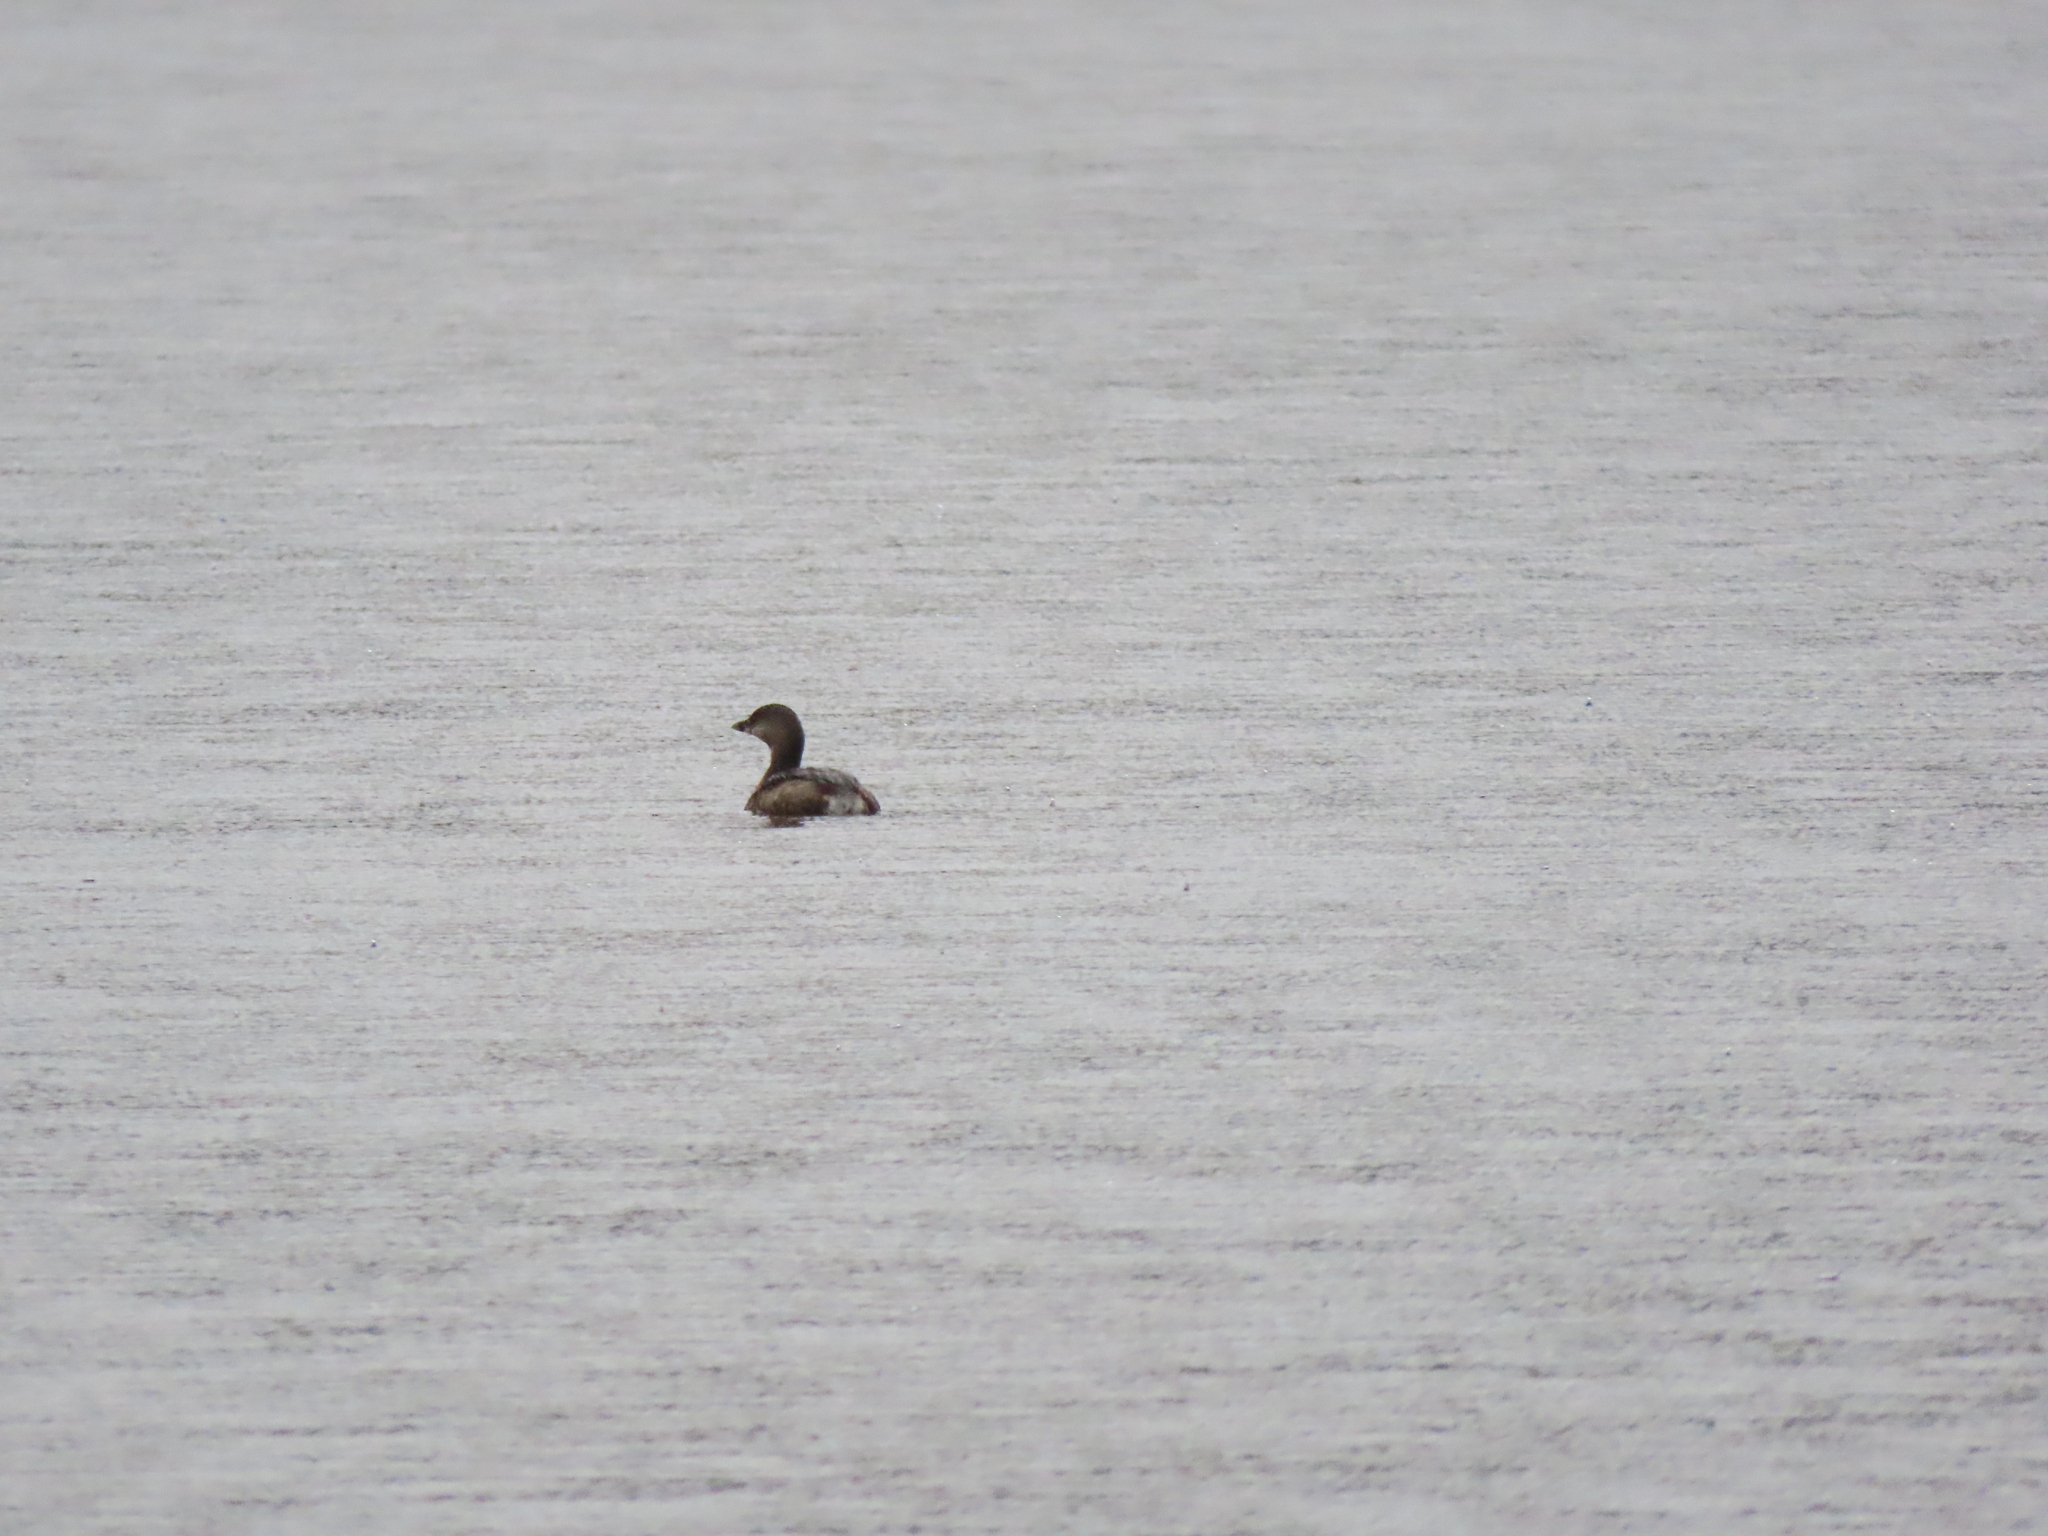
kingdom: Animalia
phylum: Chordata
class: Aves
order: Podicipediformes
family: Podicipedidae
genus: Podilymbus
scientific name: Podilymbus podiceps
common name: Pied-billed grebe
